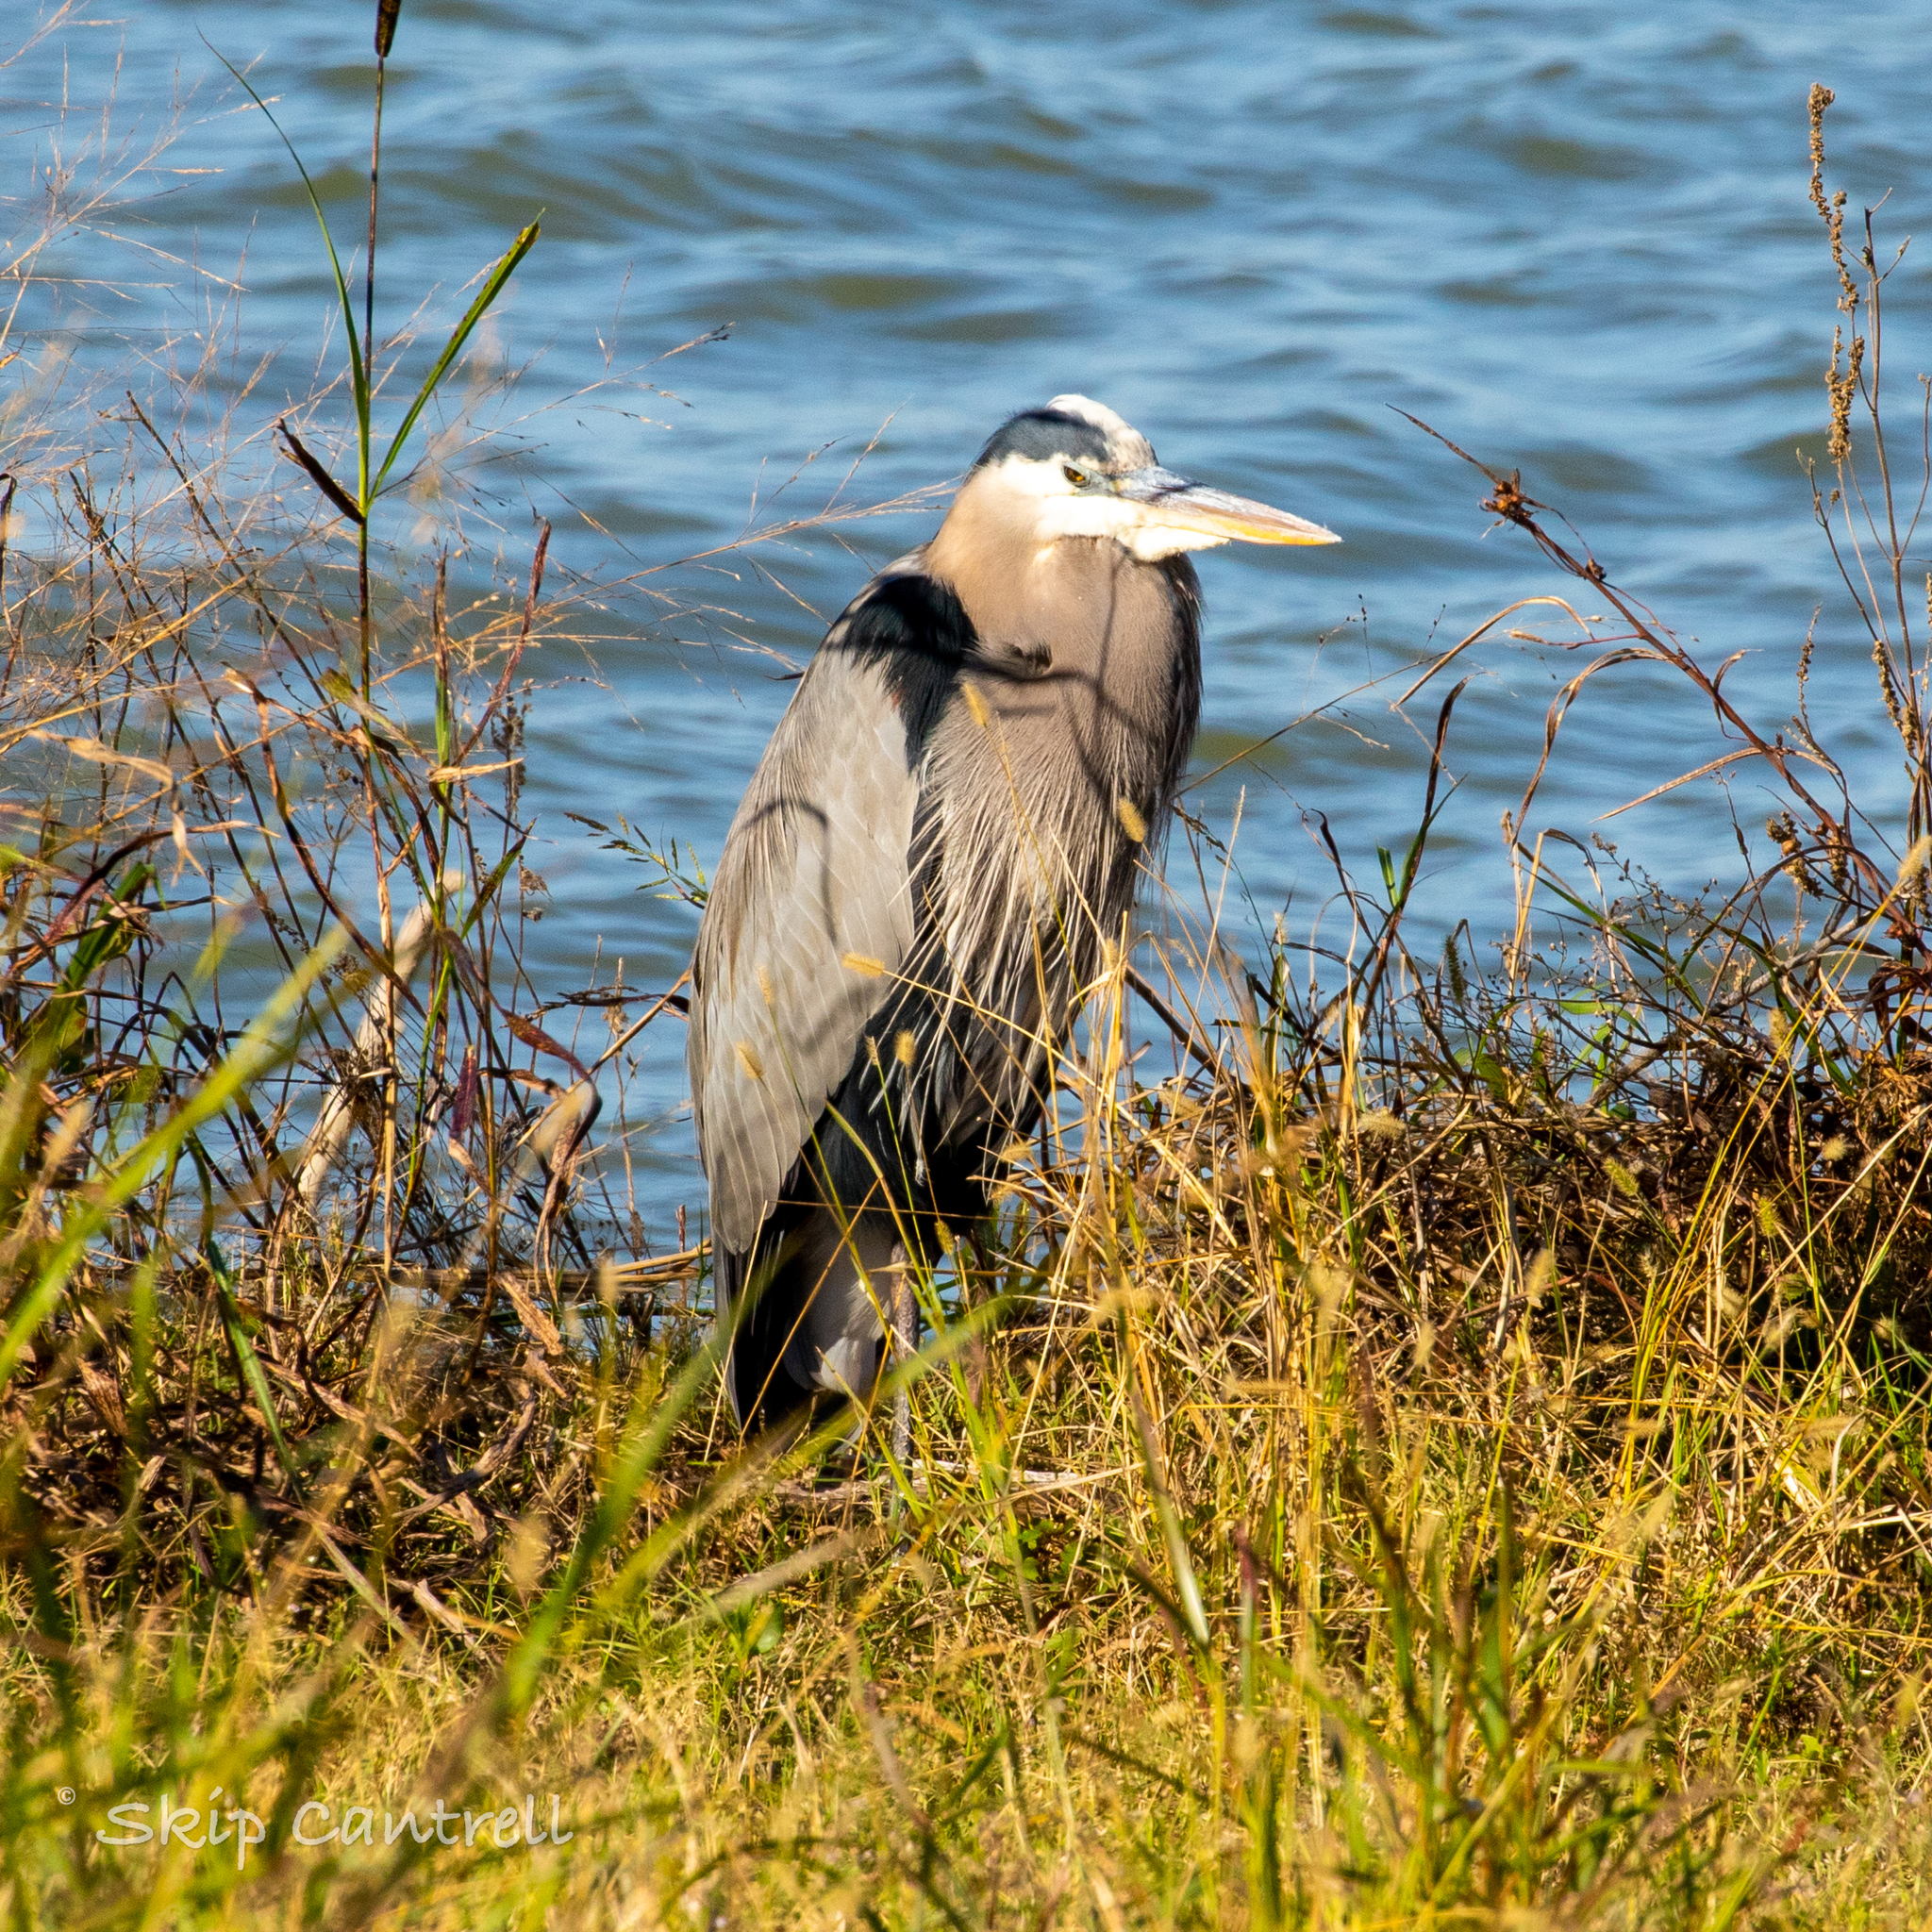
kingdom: Animalia
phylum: Chordata
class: Aves
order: Pelecaniformes
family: Ardeidae
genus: Ardea
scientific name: Ardea herodias
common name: Great blue heron
